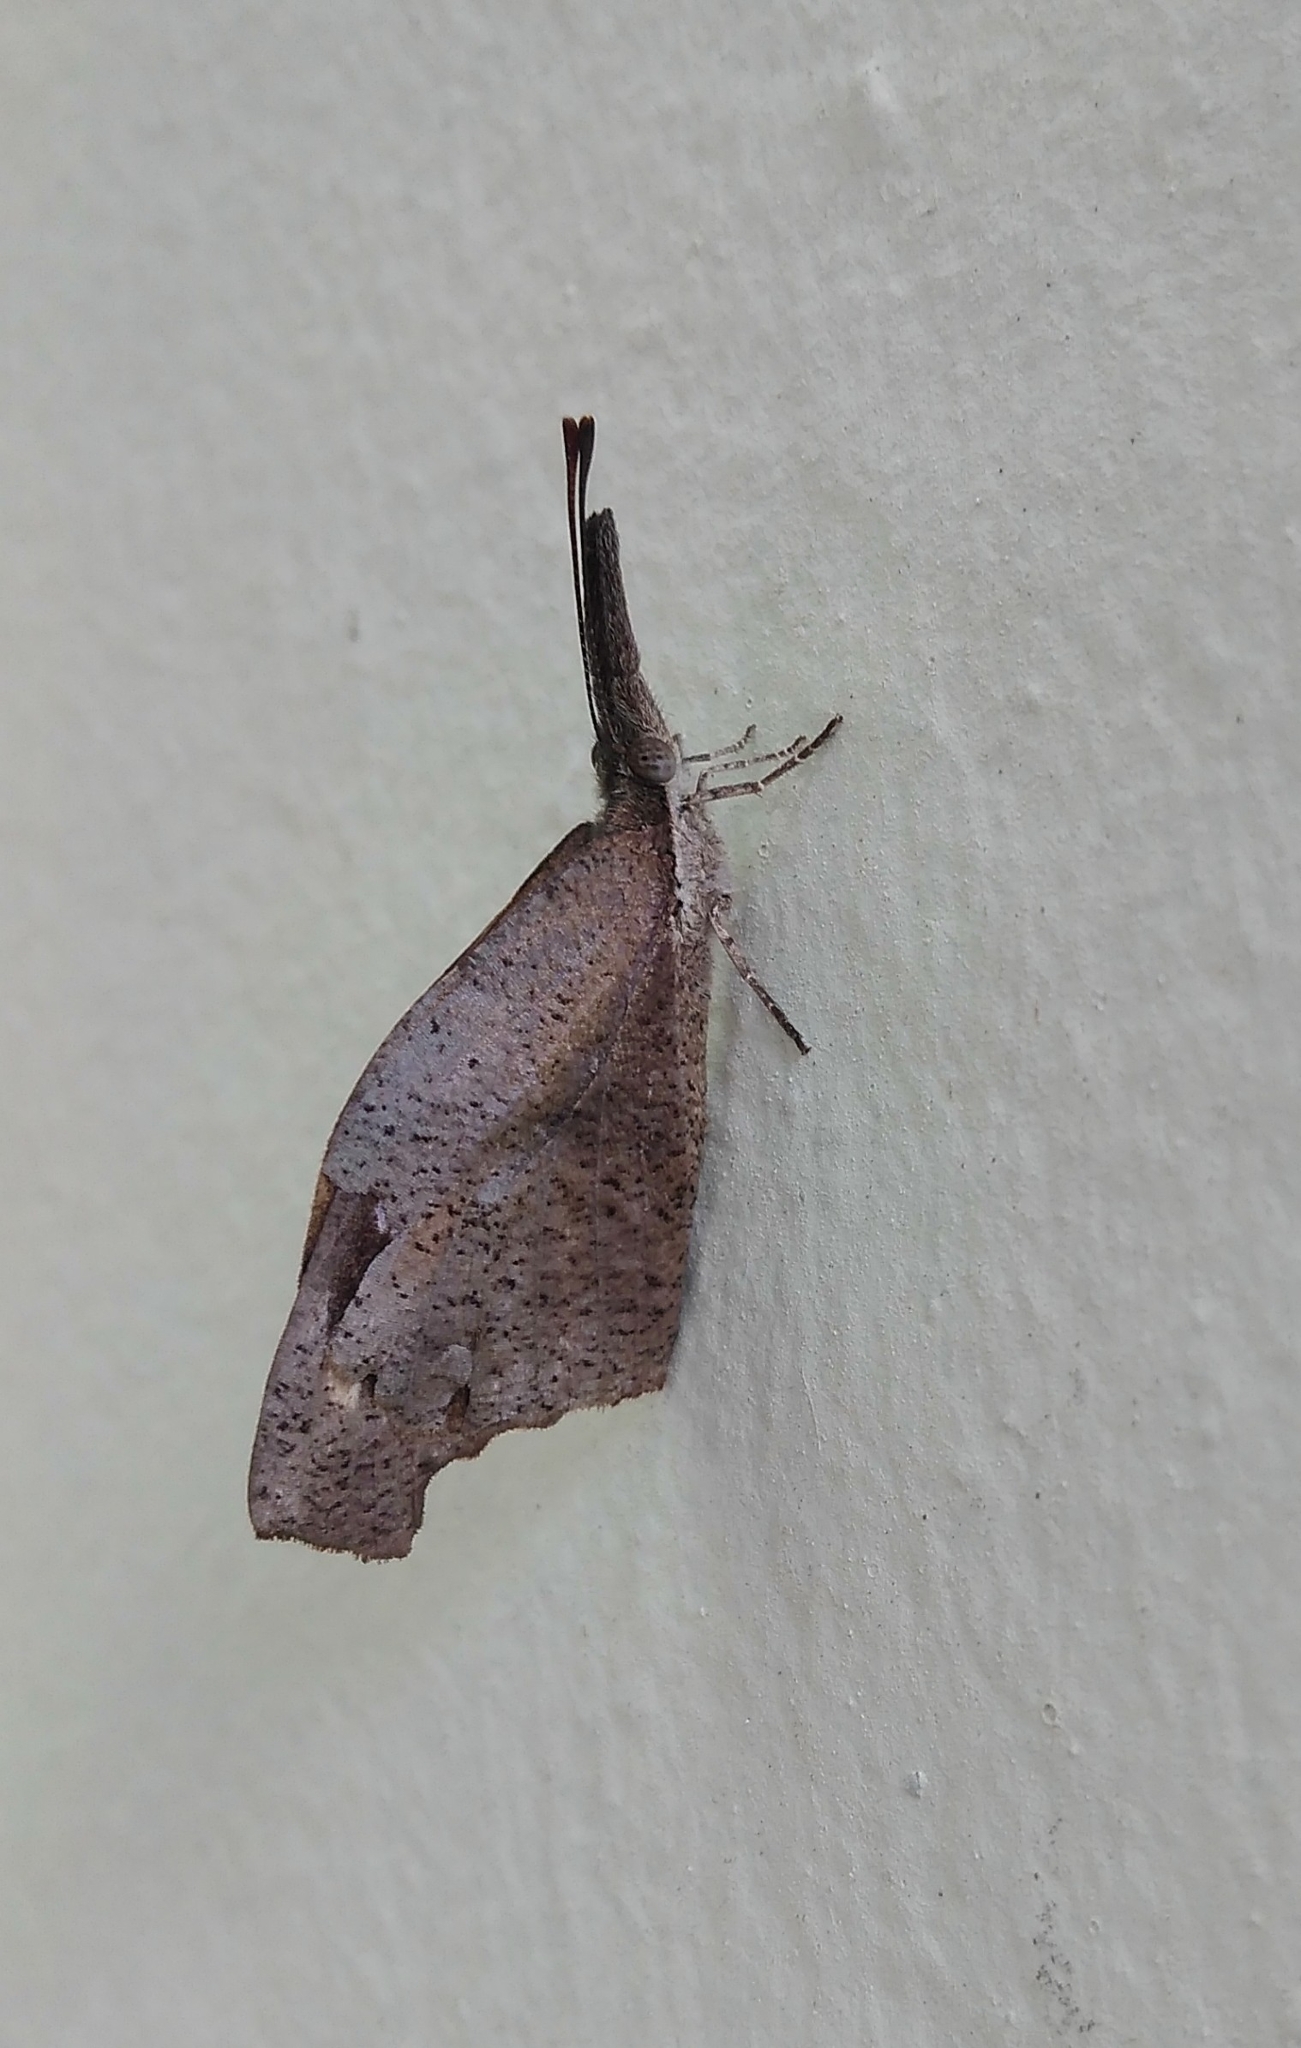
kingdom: Animalia
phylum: Arthropoda
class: Insecta
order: Lepidoptera
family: Nymphalidae
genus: Libytheana
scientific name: Libytheana carinenta
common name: American snout
